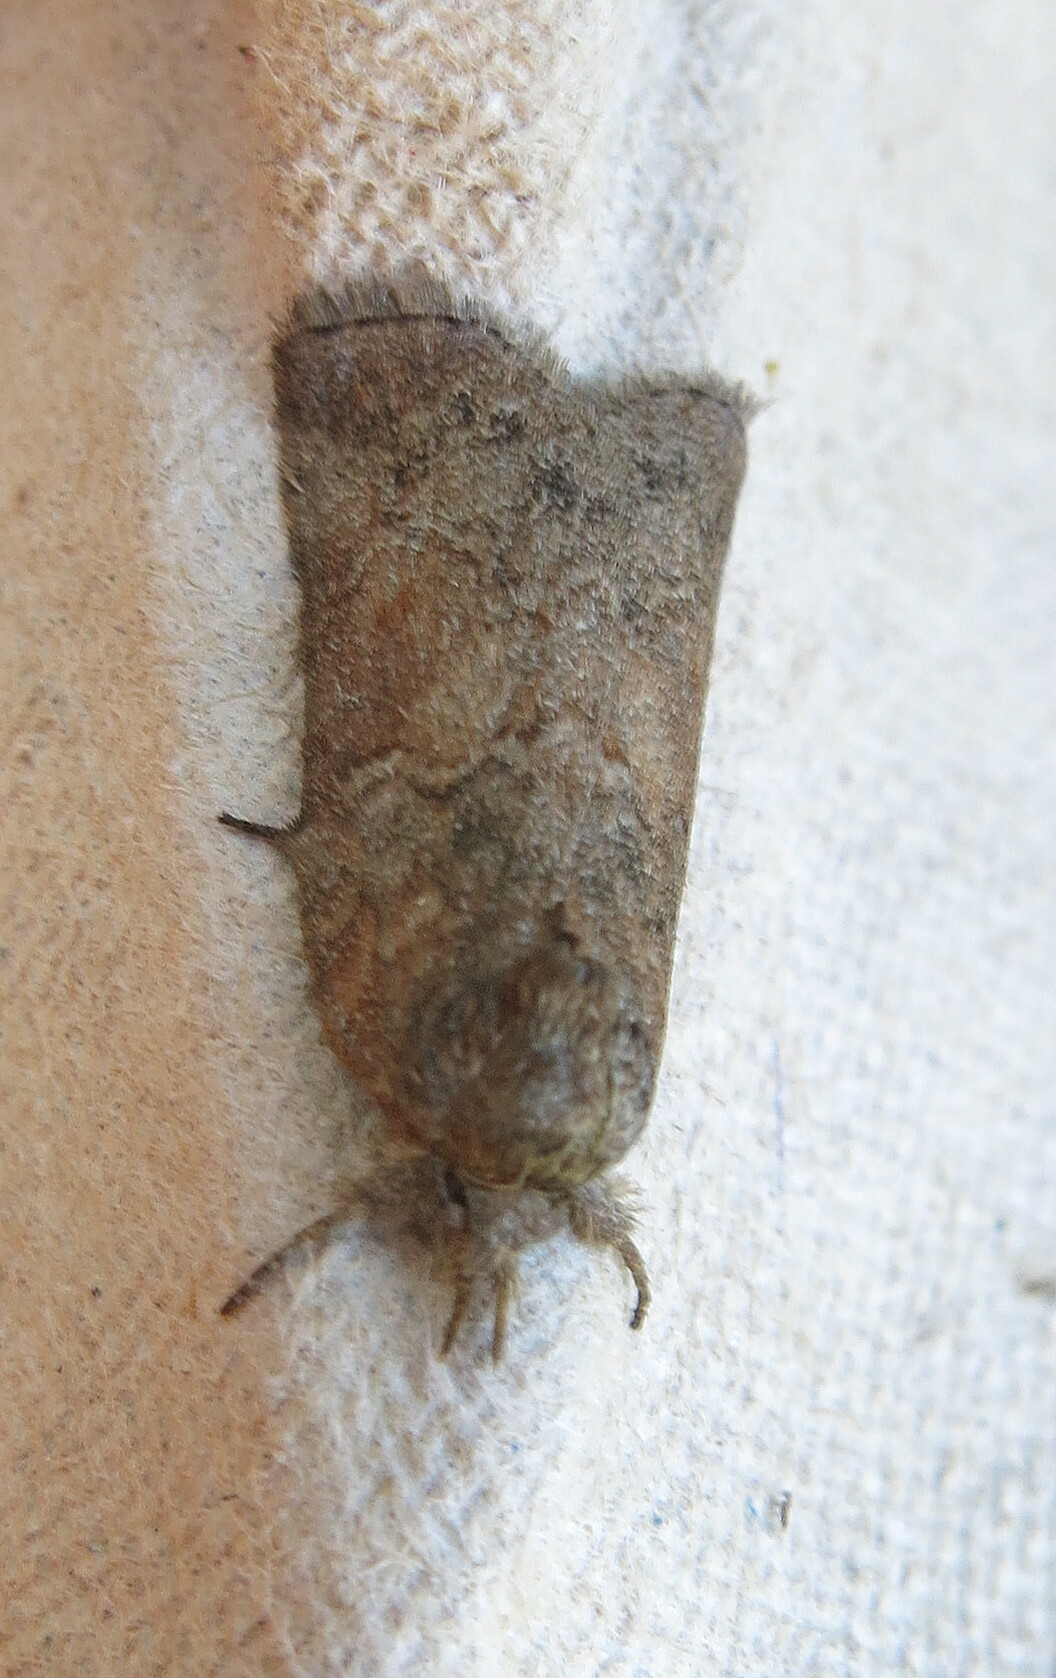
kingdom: Animalia
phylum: Arthropoda
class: Insecta
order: Lepidoptera
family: Nolidae
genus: Nycteola
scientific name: Nycteola revayana
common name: Oak nycteoline
